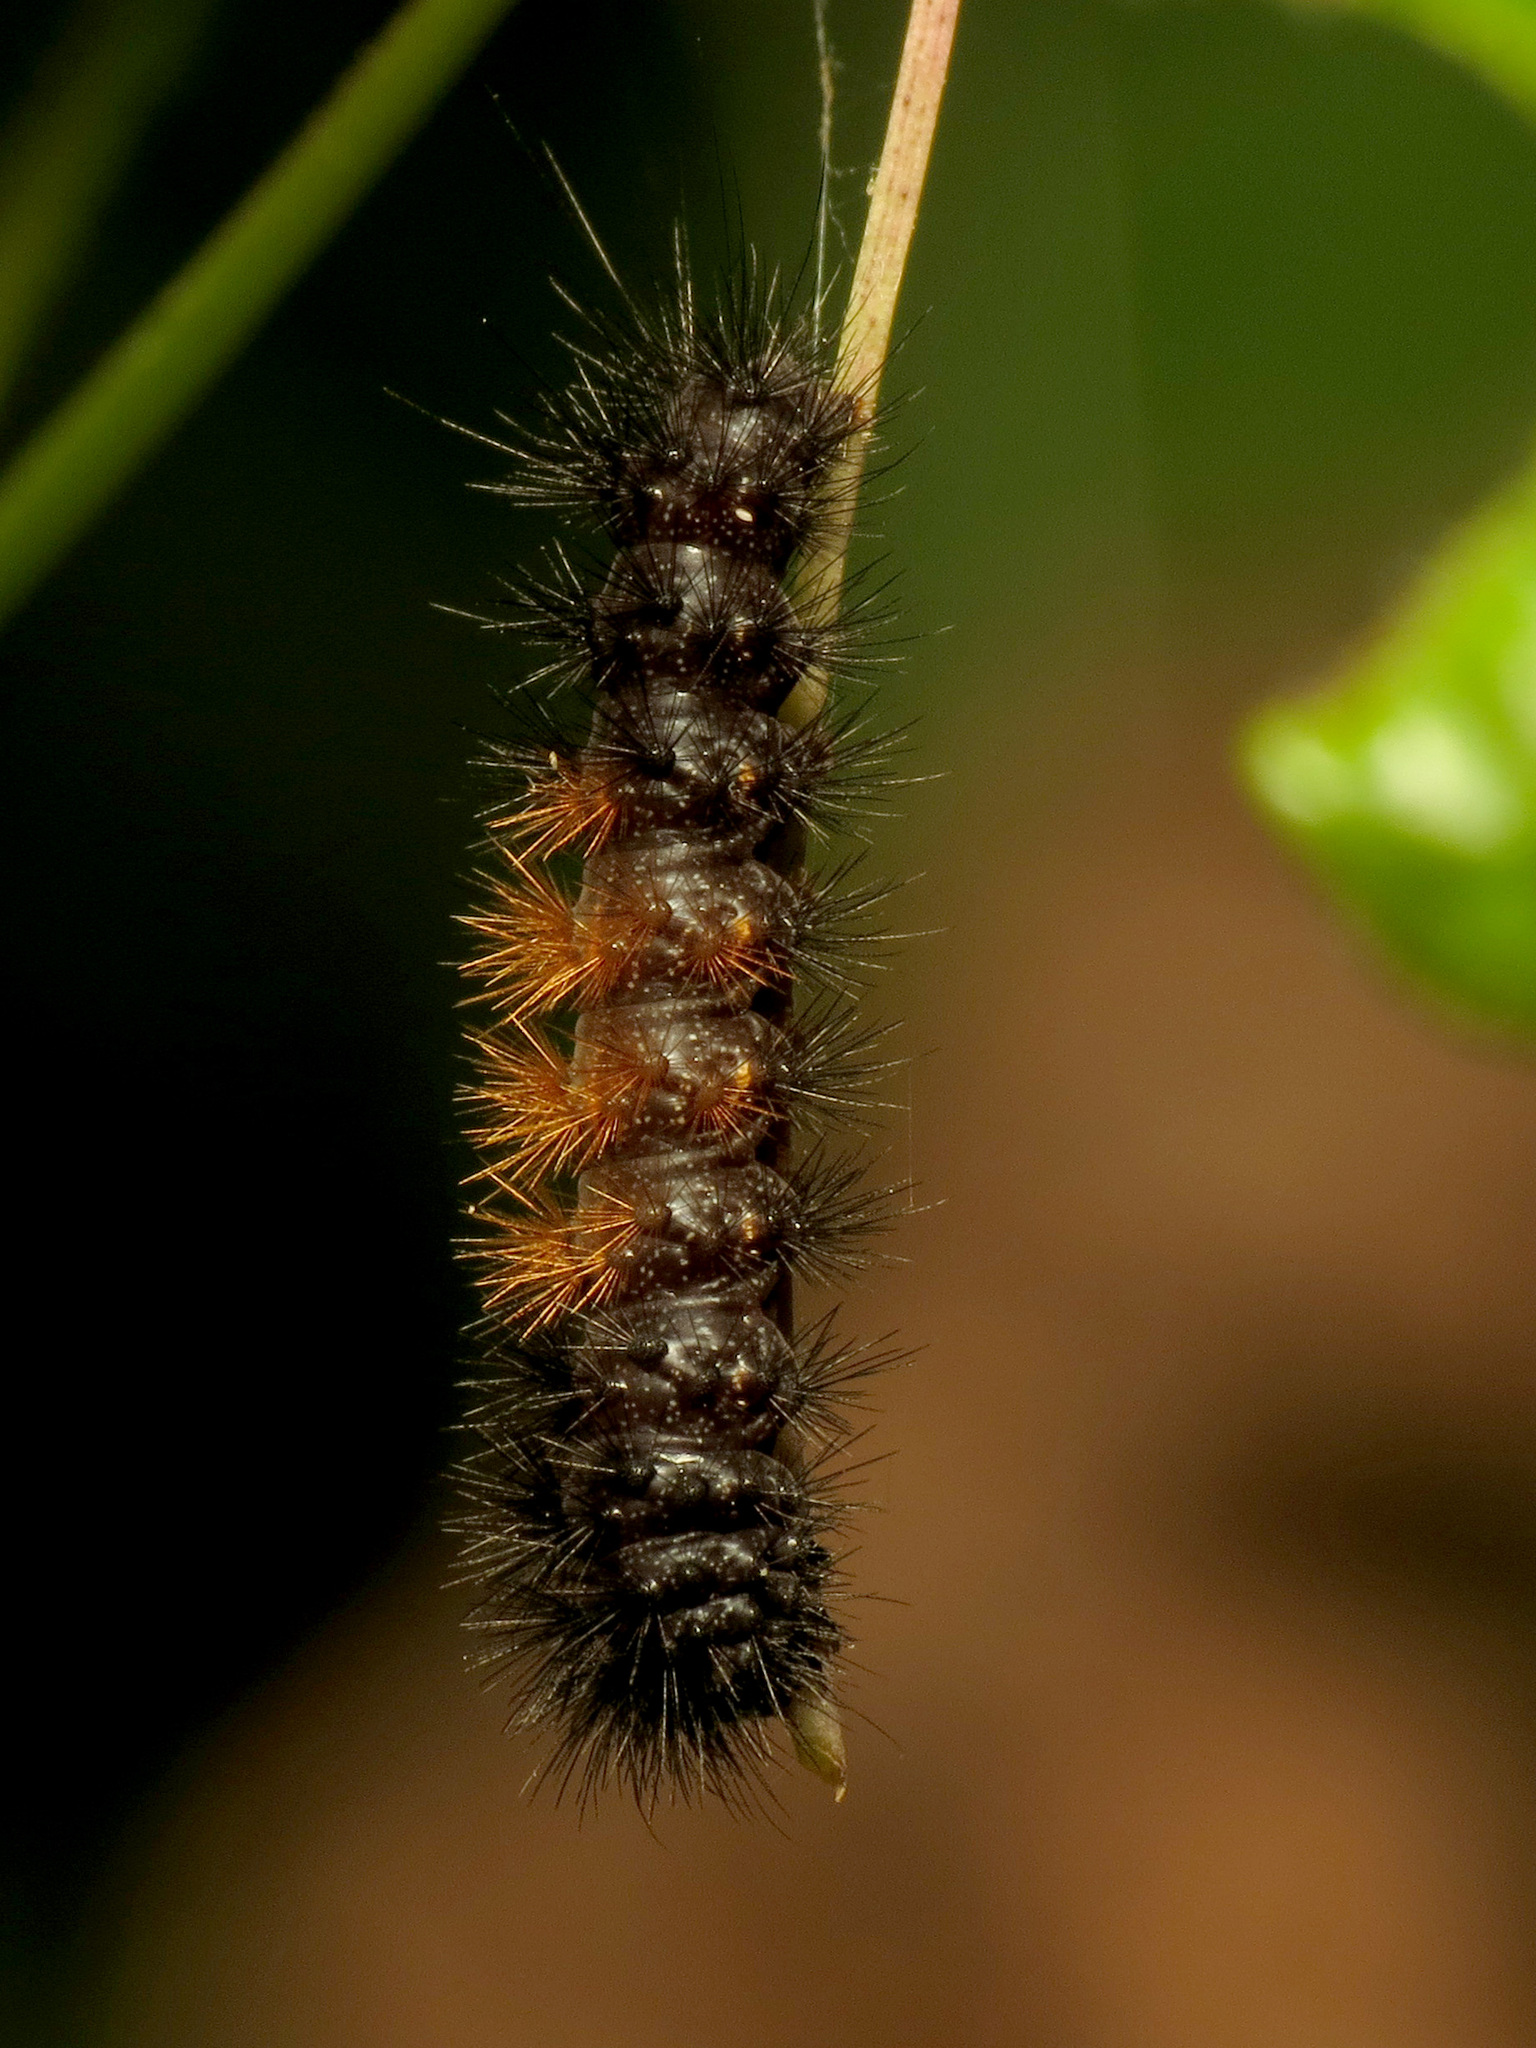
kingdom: Animalia
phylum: Arthropoda
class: Insecta
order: Lepidoptera
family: Erebidae
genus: Pyrrharctia
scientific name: Pyrrharctia isabella
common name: Isabella tiger moth
